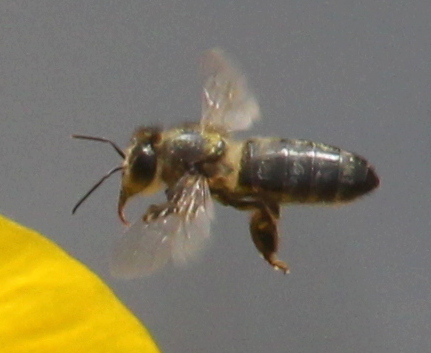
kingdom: Animalia
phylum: Arthropoda
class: Insecta
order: Hymenoptera
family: Apidae
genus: Apis
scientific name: Apis mellifera
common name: Honey bee
